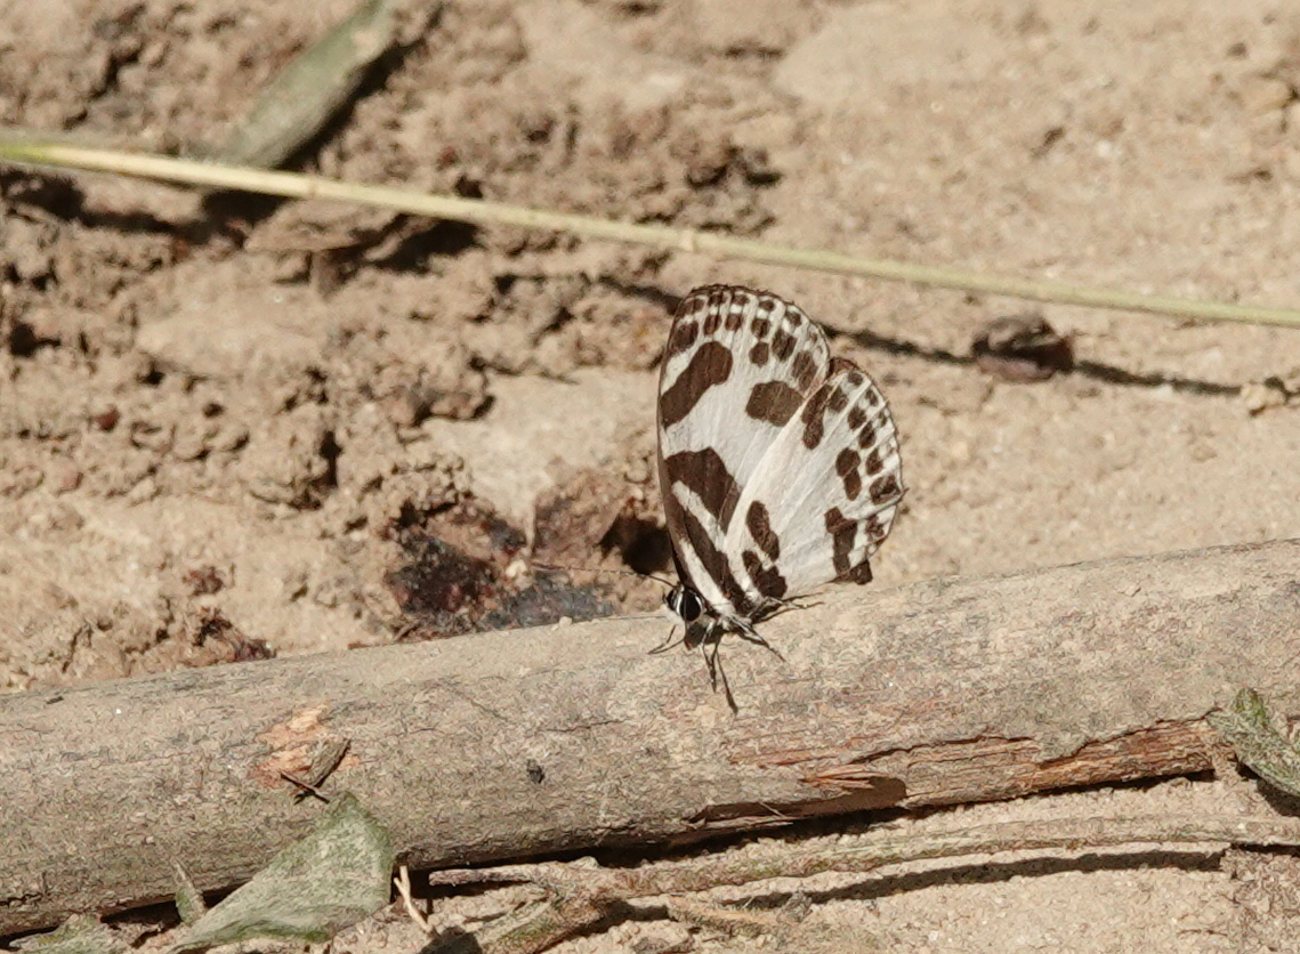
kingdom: Animalia
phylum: Arthropoda
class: Insecta
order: Lepidoptera
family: Lycaenidae
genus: Discolampa
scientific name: Discolampa ethion
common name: Banded blue pierrot
